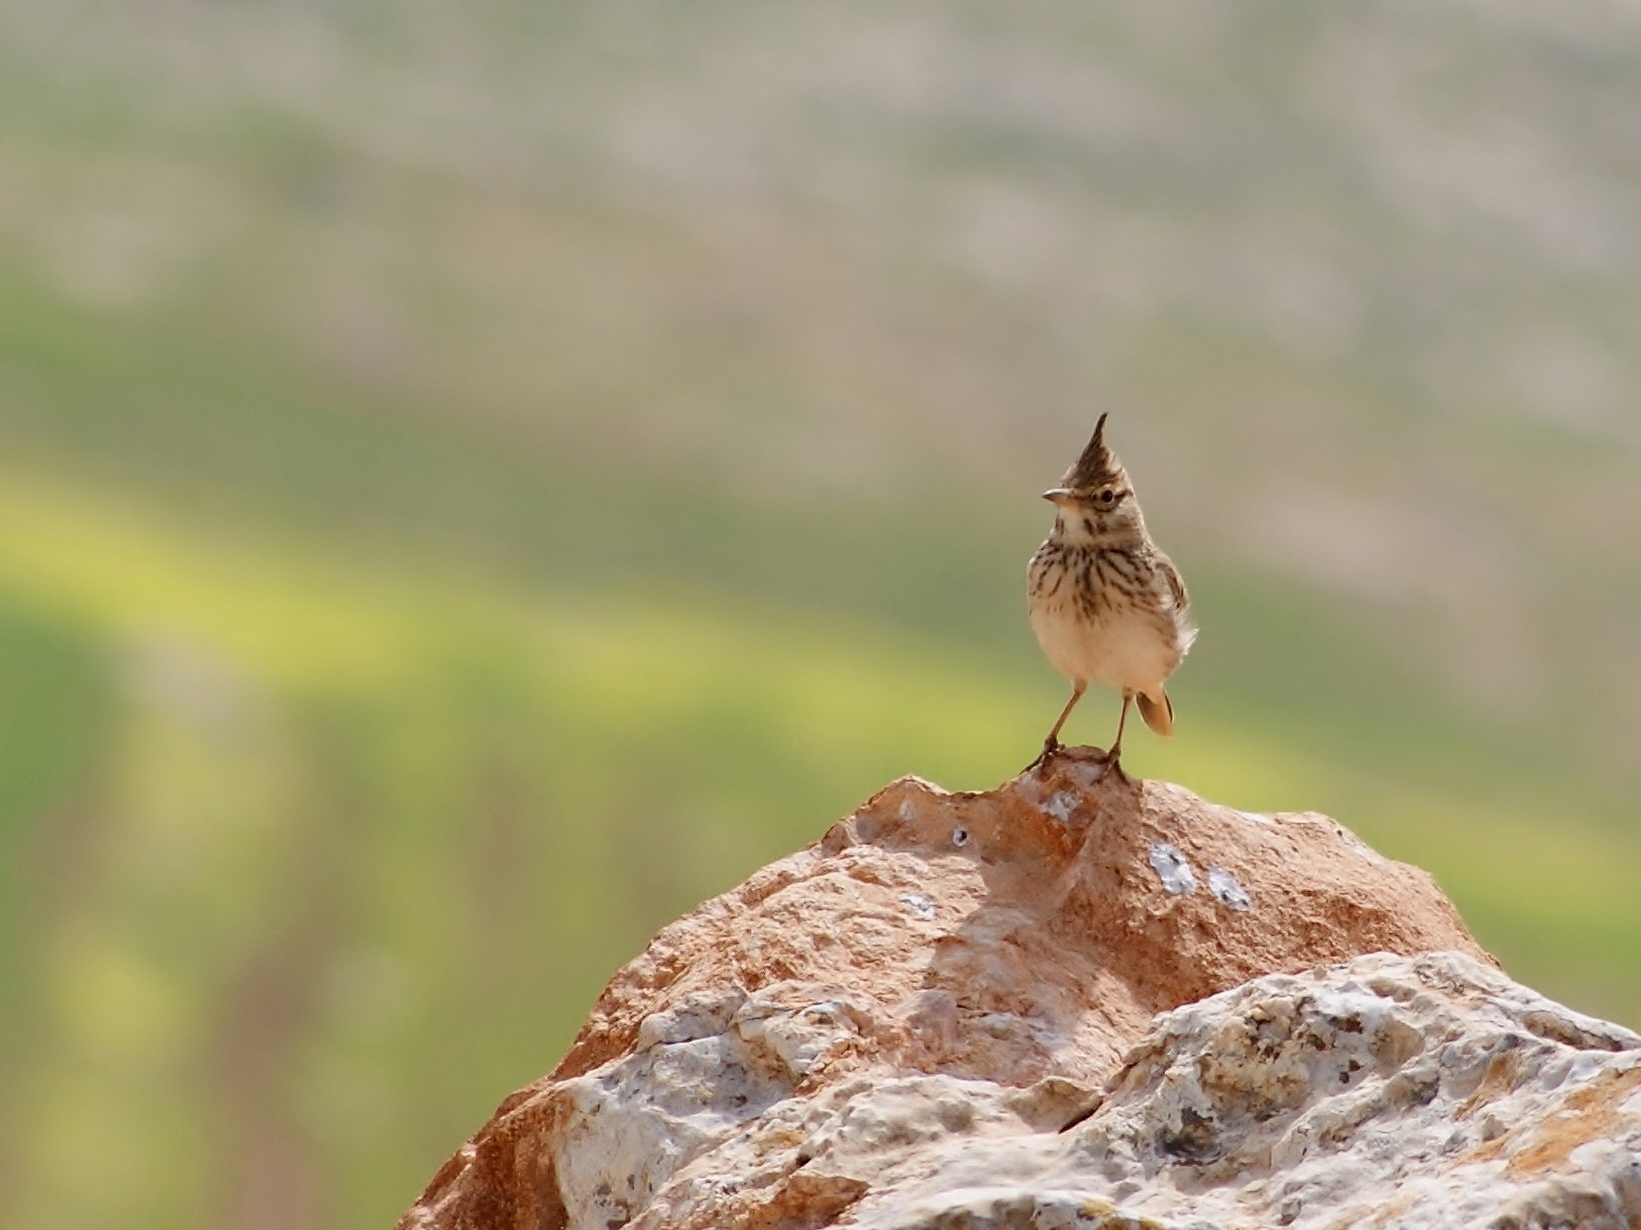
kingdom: Animalia
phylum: Chordata
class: Aves
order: Passeriformes
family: Alaudidae
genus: Galerida
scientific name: Galerida cristata
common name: Crested lark
